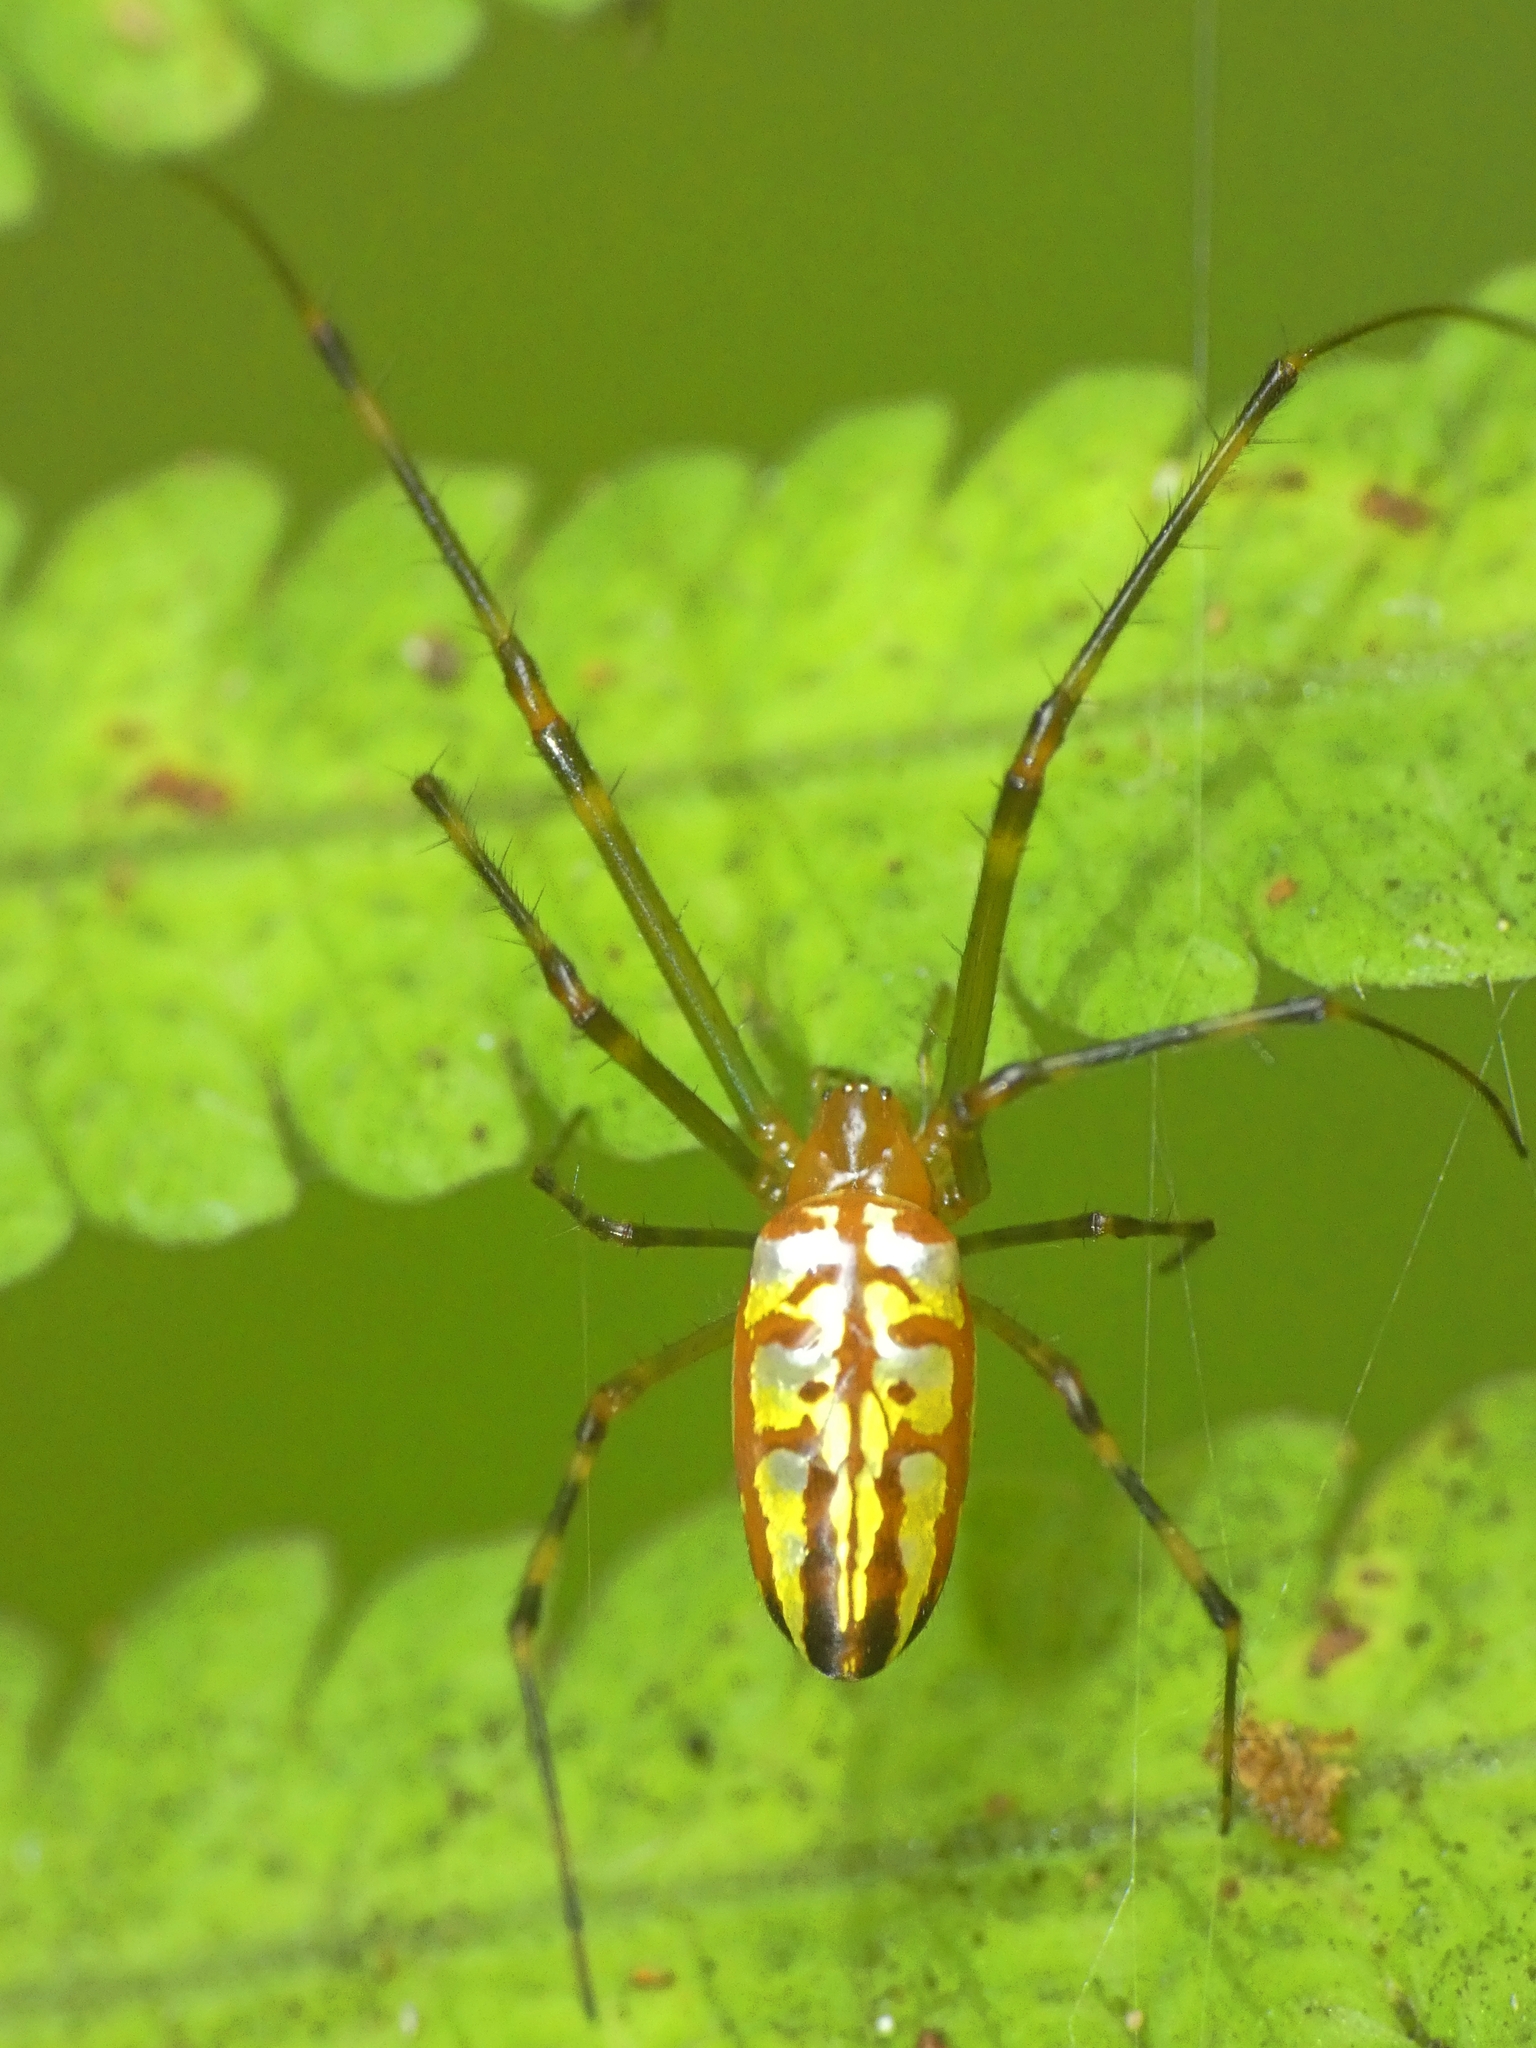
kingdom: Animalia
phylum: Arthropoda
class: Arachnida
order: Araneae
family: Tetragnathidae
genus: Leucauge
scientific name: Leucauge granulata
